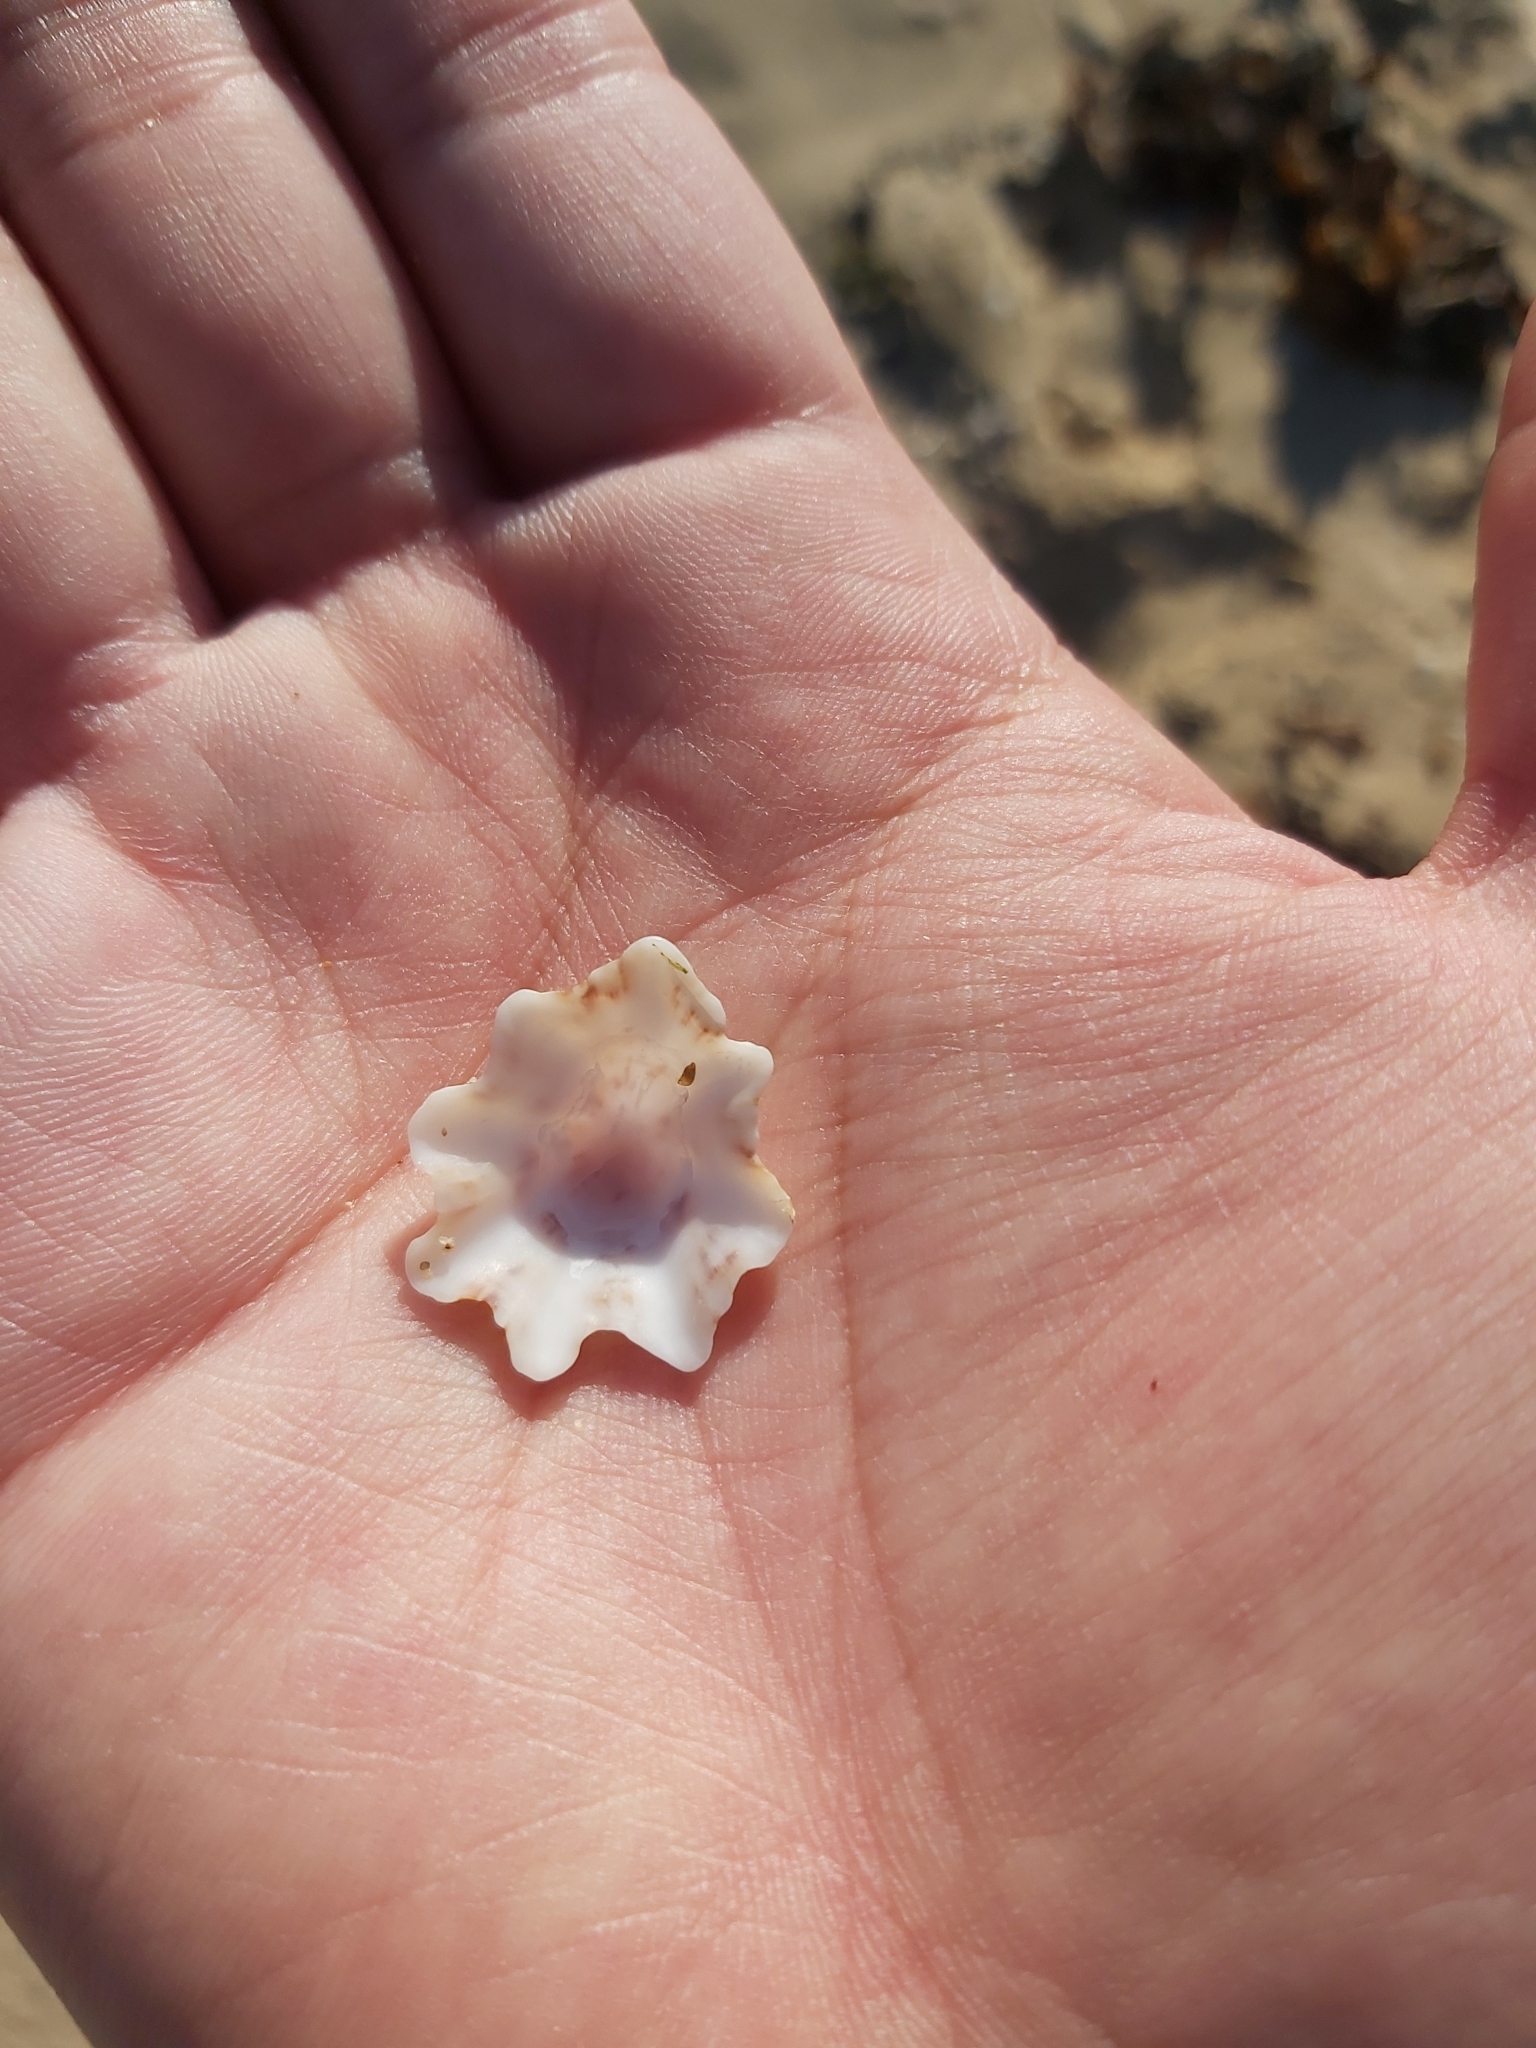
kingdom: Animalia
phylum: Mollusca
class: Gastropoda
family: Patellidae
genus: Scutellastra
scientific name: Scutellastra chapmani
